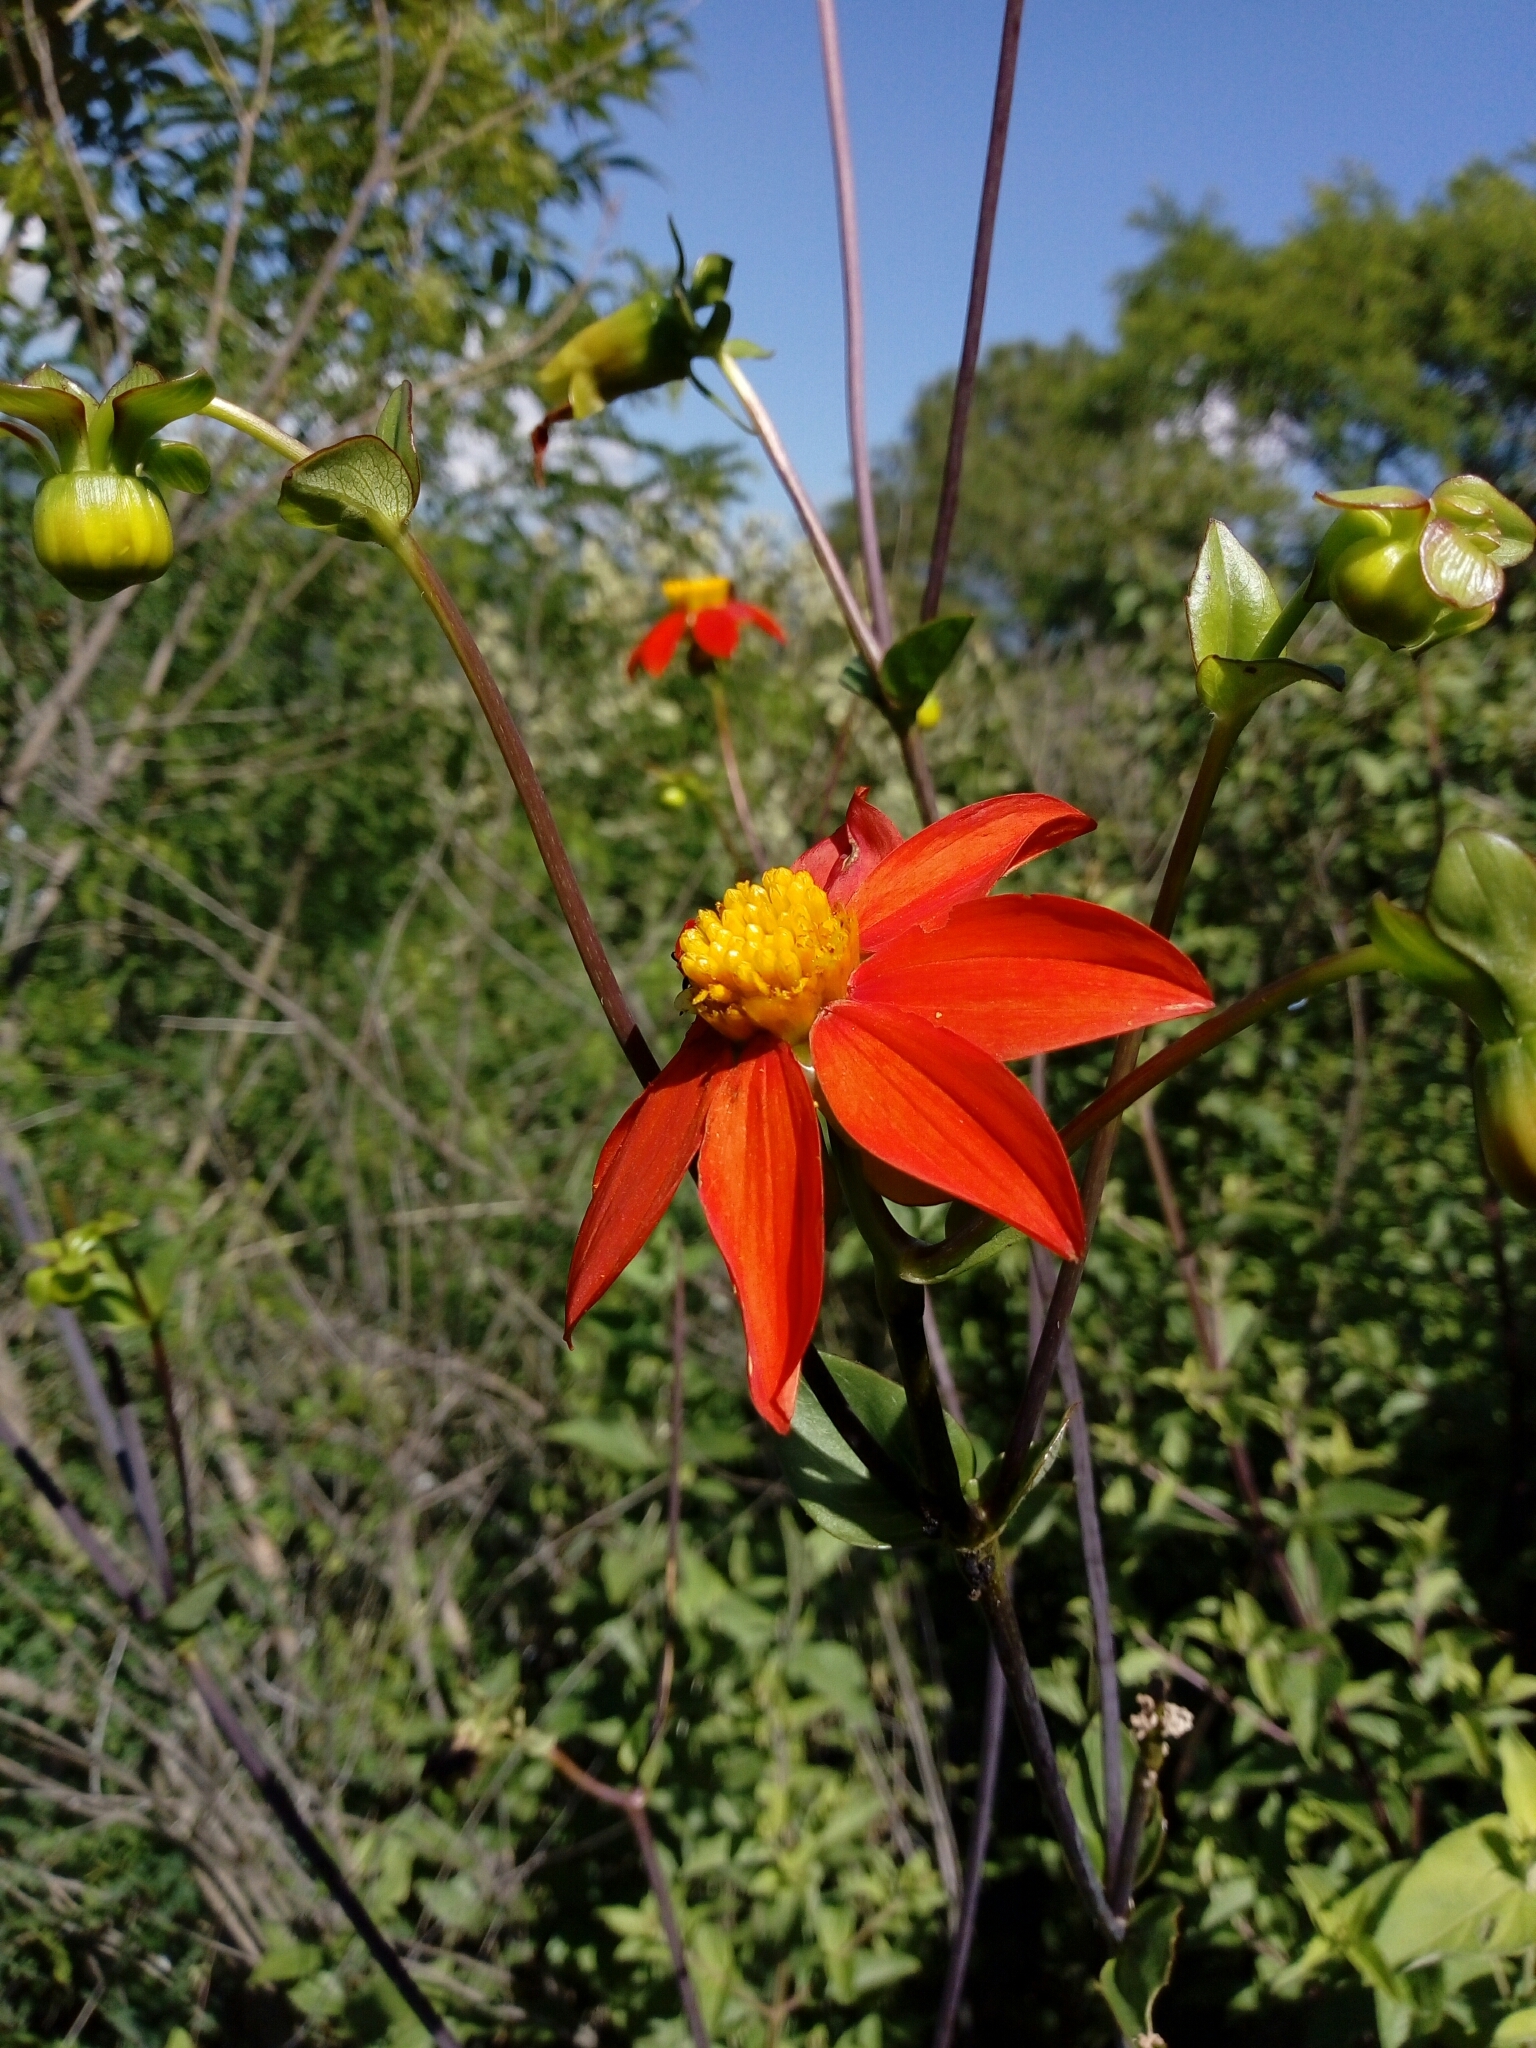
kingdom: Plantae
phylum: Tracheophyta
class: Magnoliopsida
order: Asterales
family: Asteraceae
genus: Dahlia
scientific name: Dahlia coccinea
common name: Red dahlia
